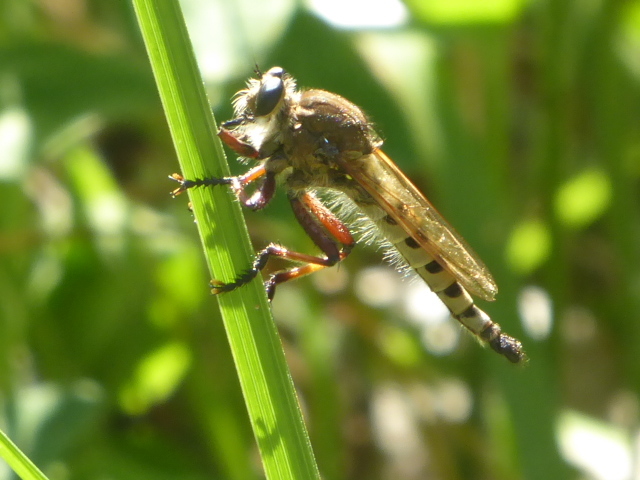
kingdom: Animalia
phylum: Arthropoda
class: Insecta
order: Diptera
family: Asilidae
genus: Promachus
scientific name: Promachus hinei
